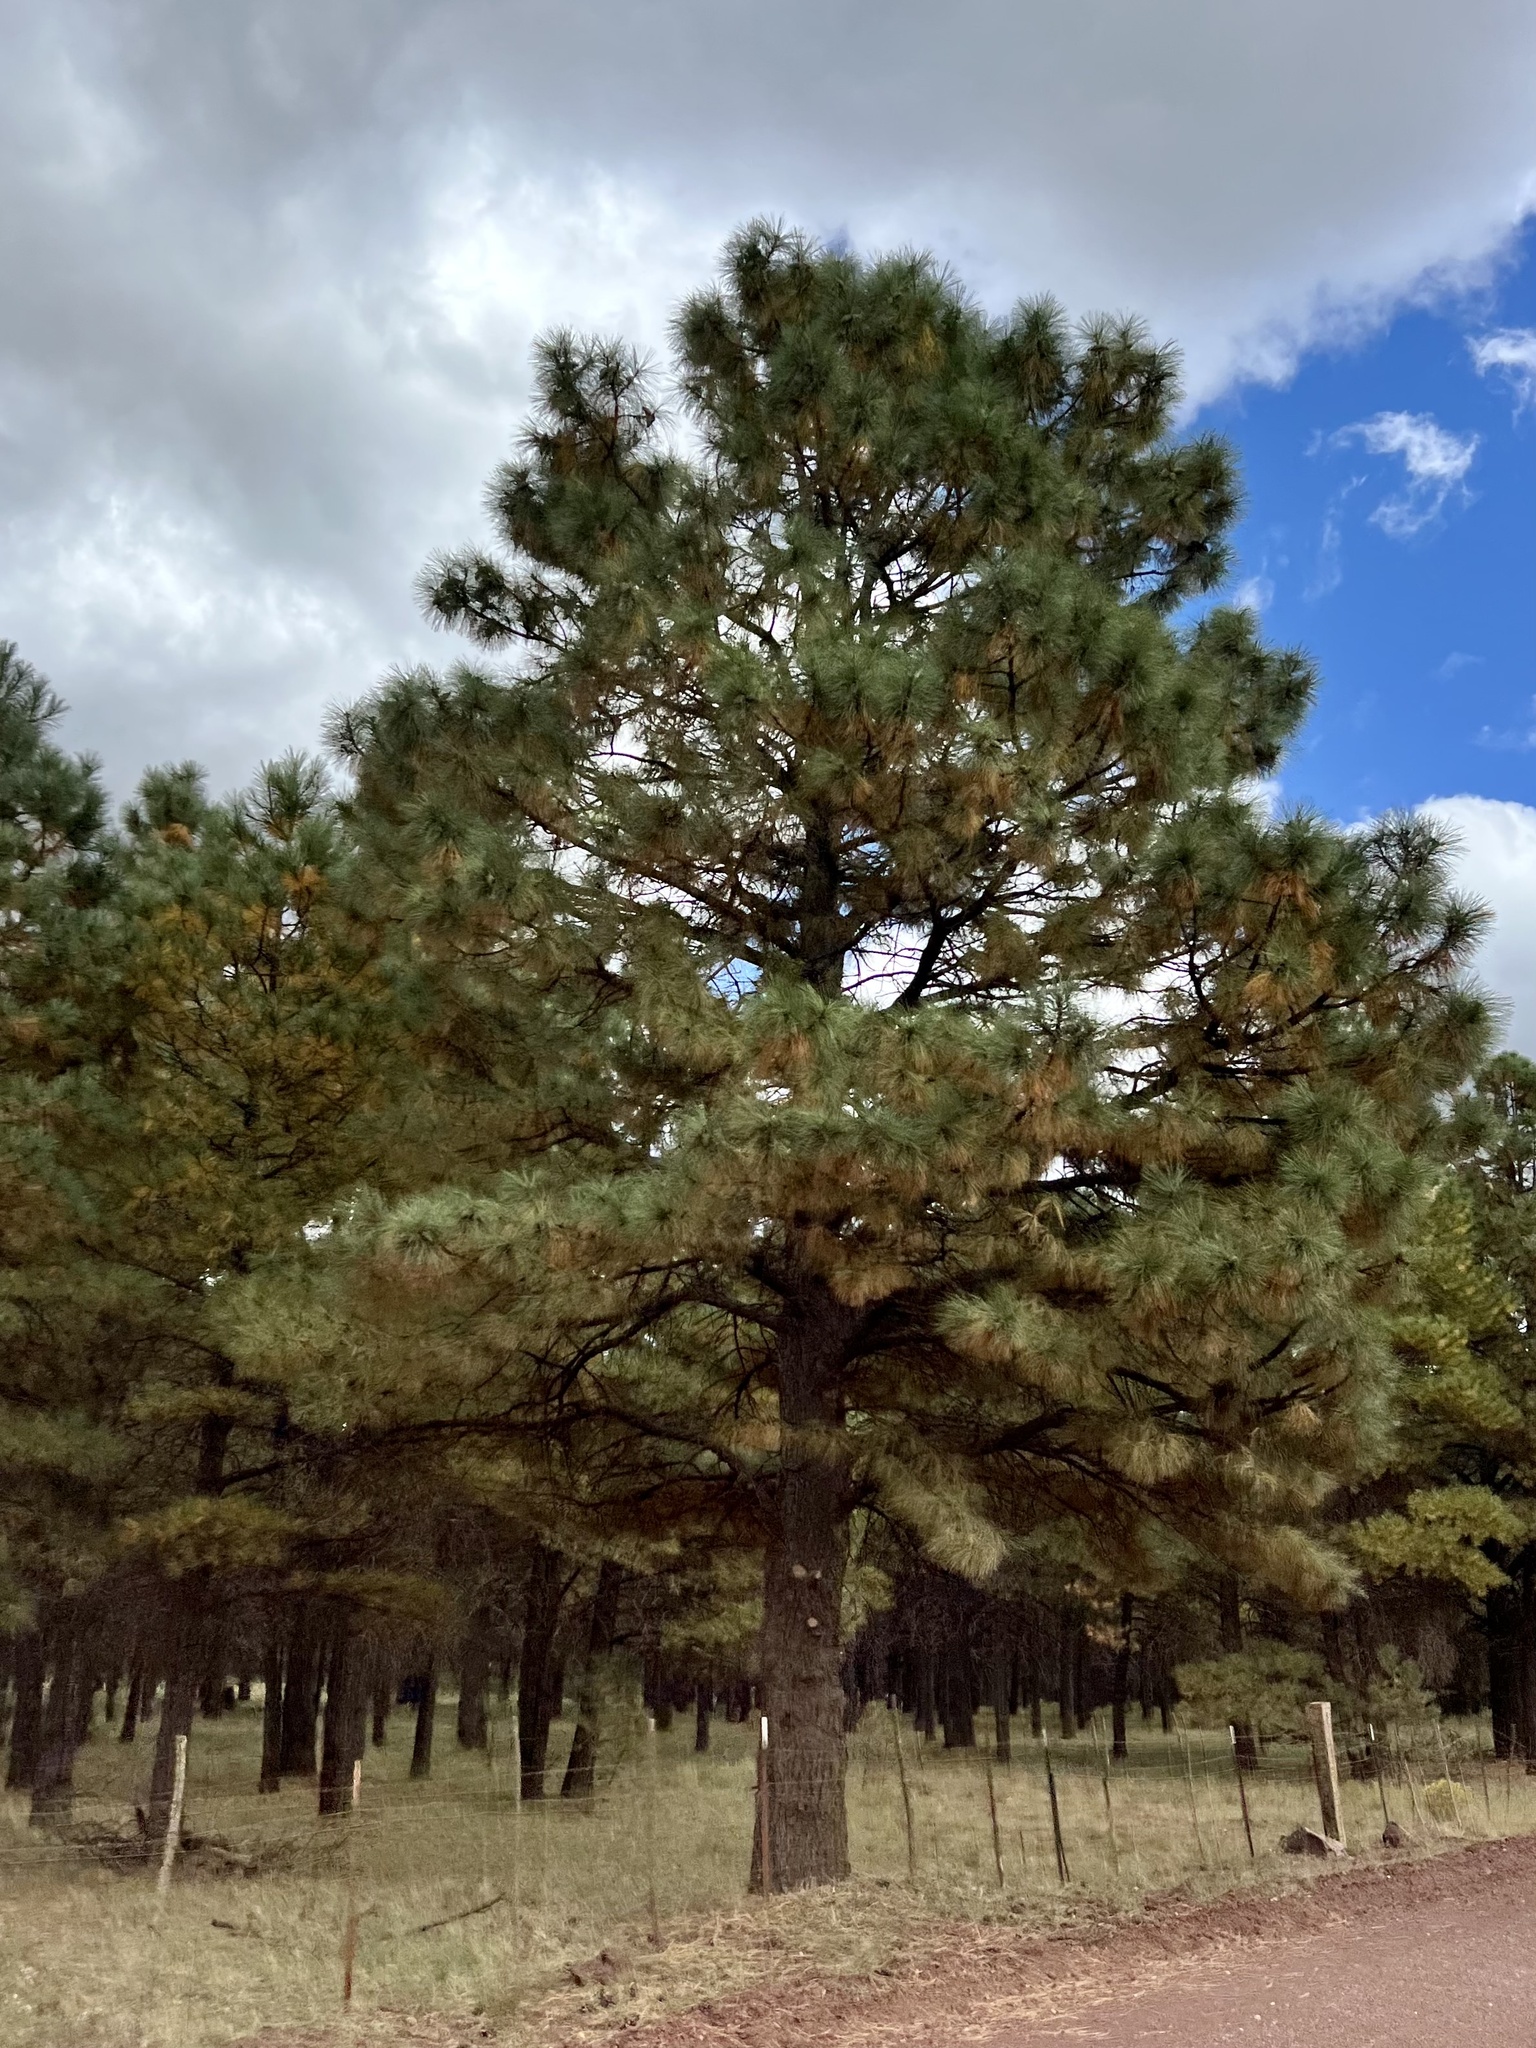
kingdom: Plantae
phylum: Tracheophyta
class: Pinopsida
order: Pinales
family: Pinaceae
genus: Pinus
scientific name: Pinus ponderosa
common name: Western yellow-pine
